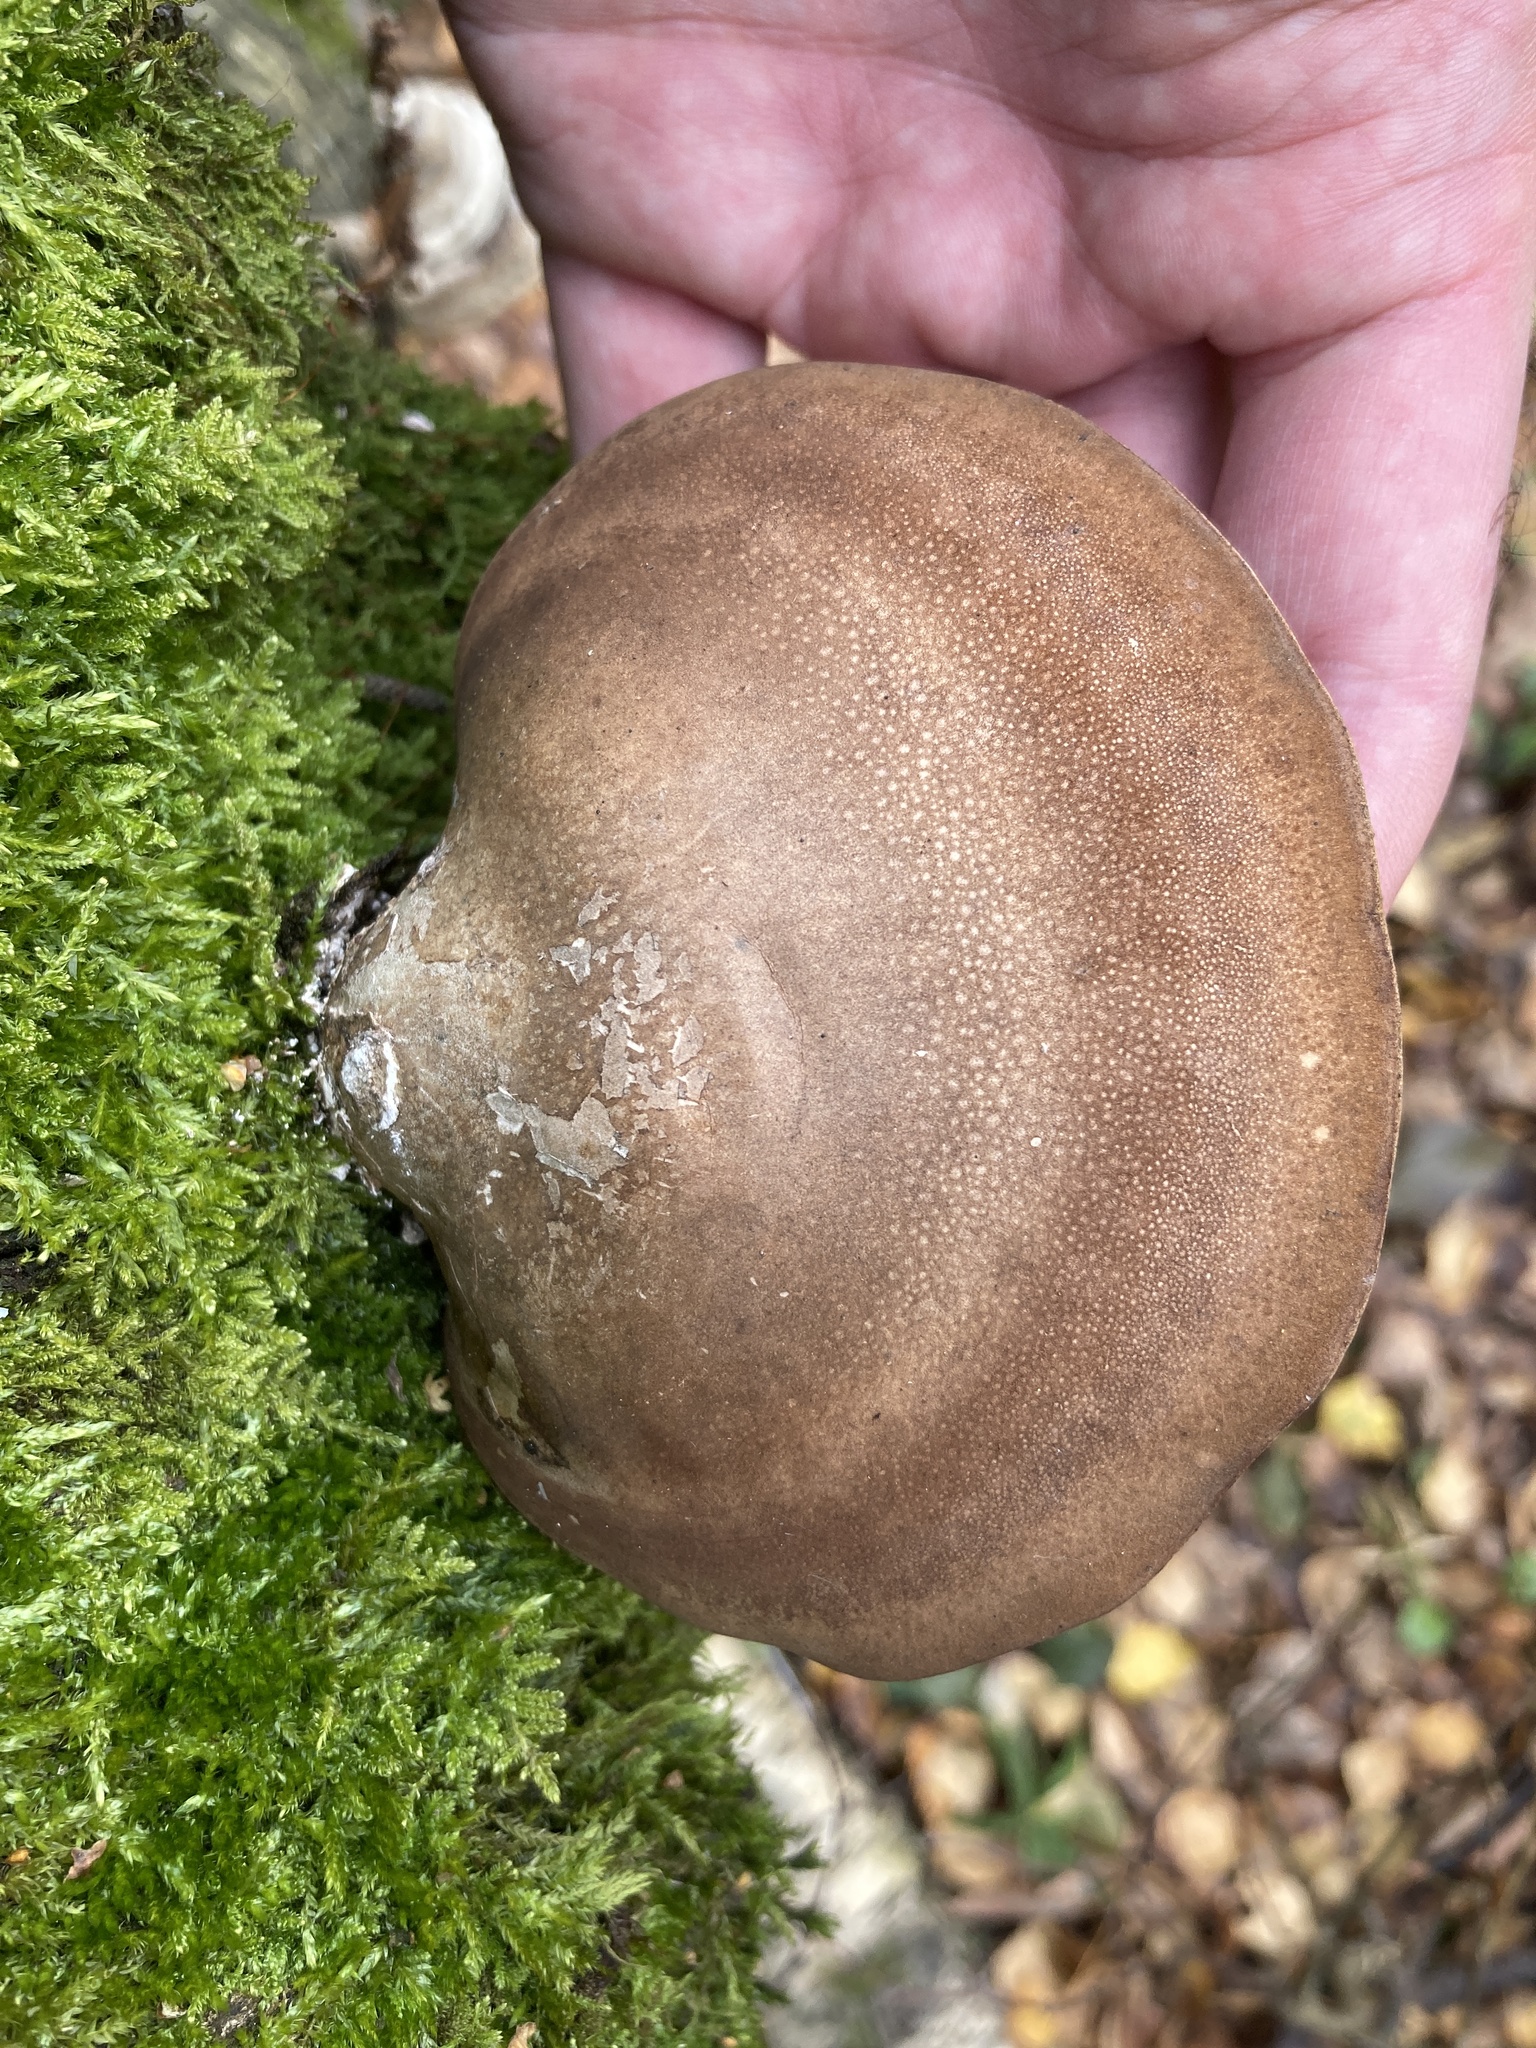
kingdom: Fungi
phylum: Basidiomycota
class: Agaricomycetes
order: Polyporales
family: Fomitopsidaceae
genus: Fomitopsis
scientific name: Fomitopsis betulina
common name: Birch polypore
